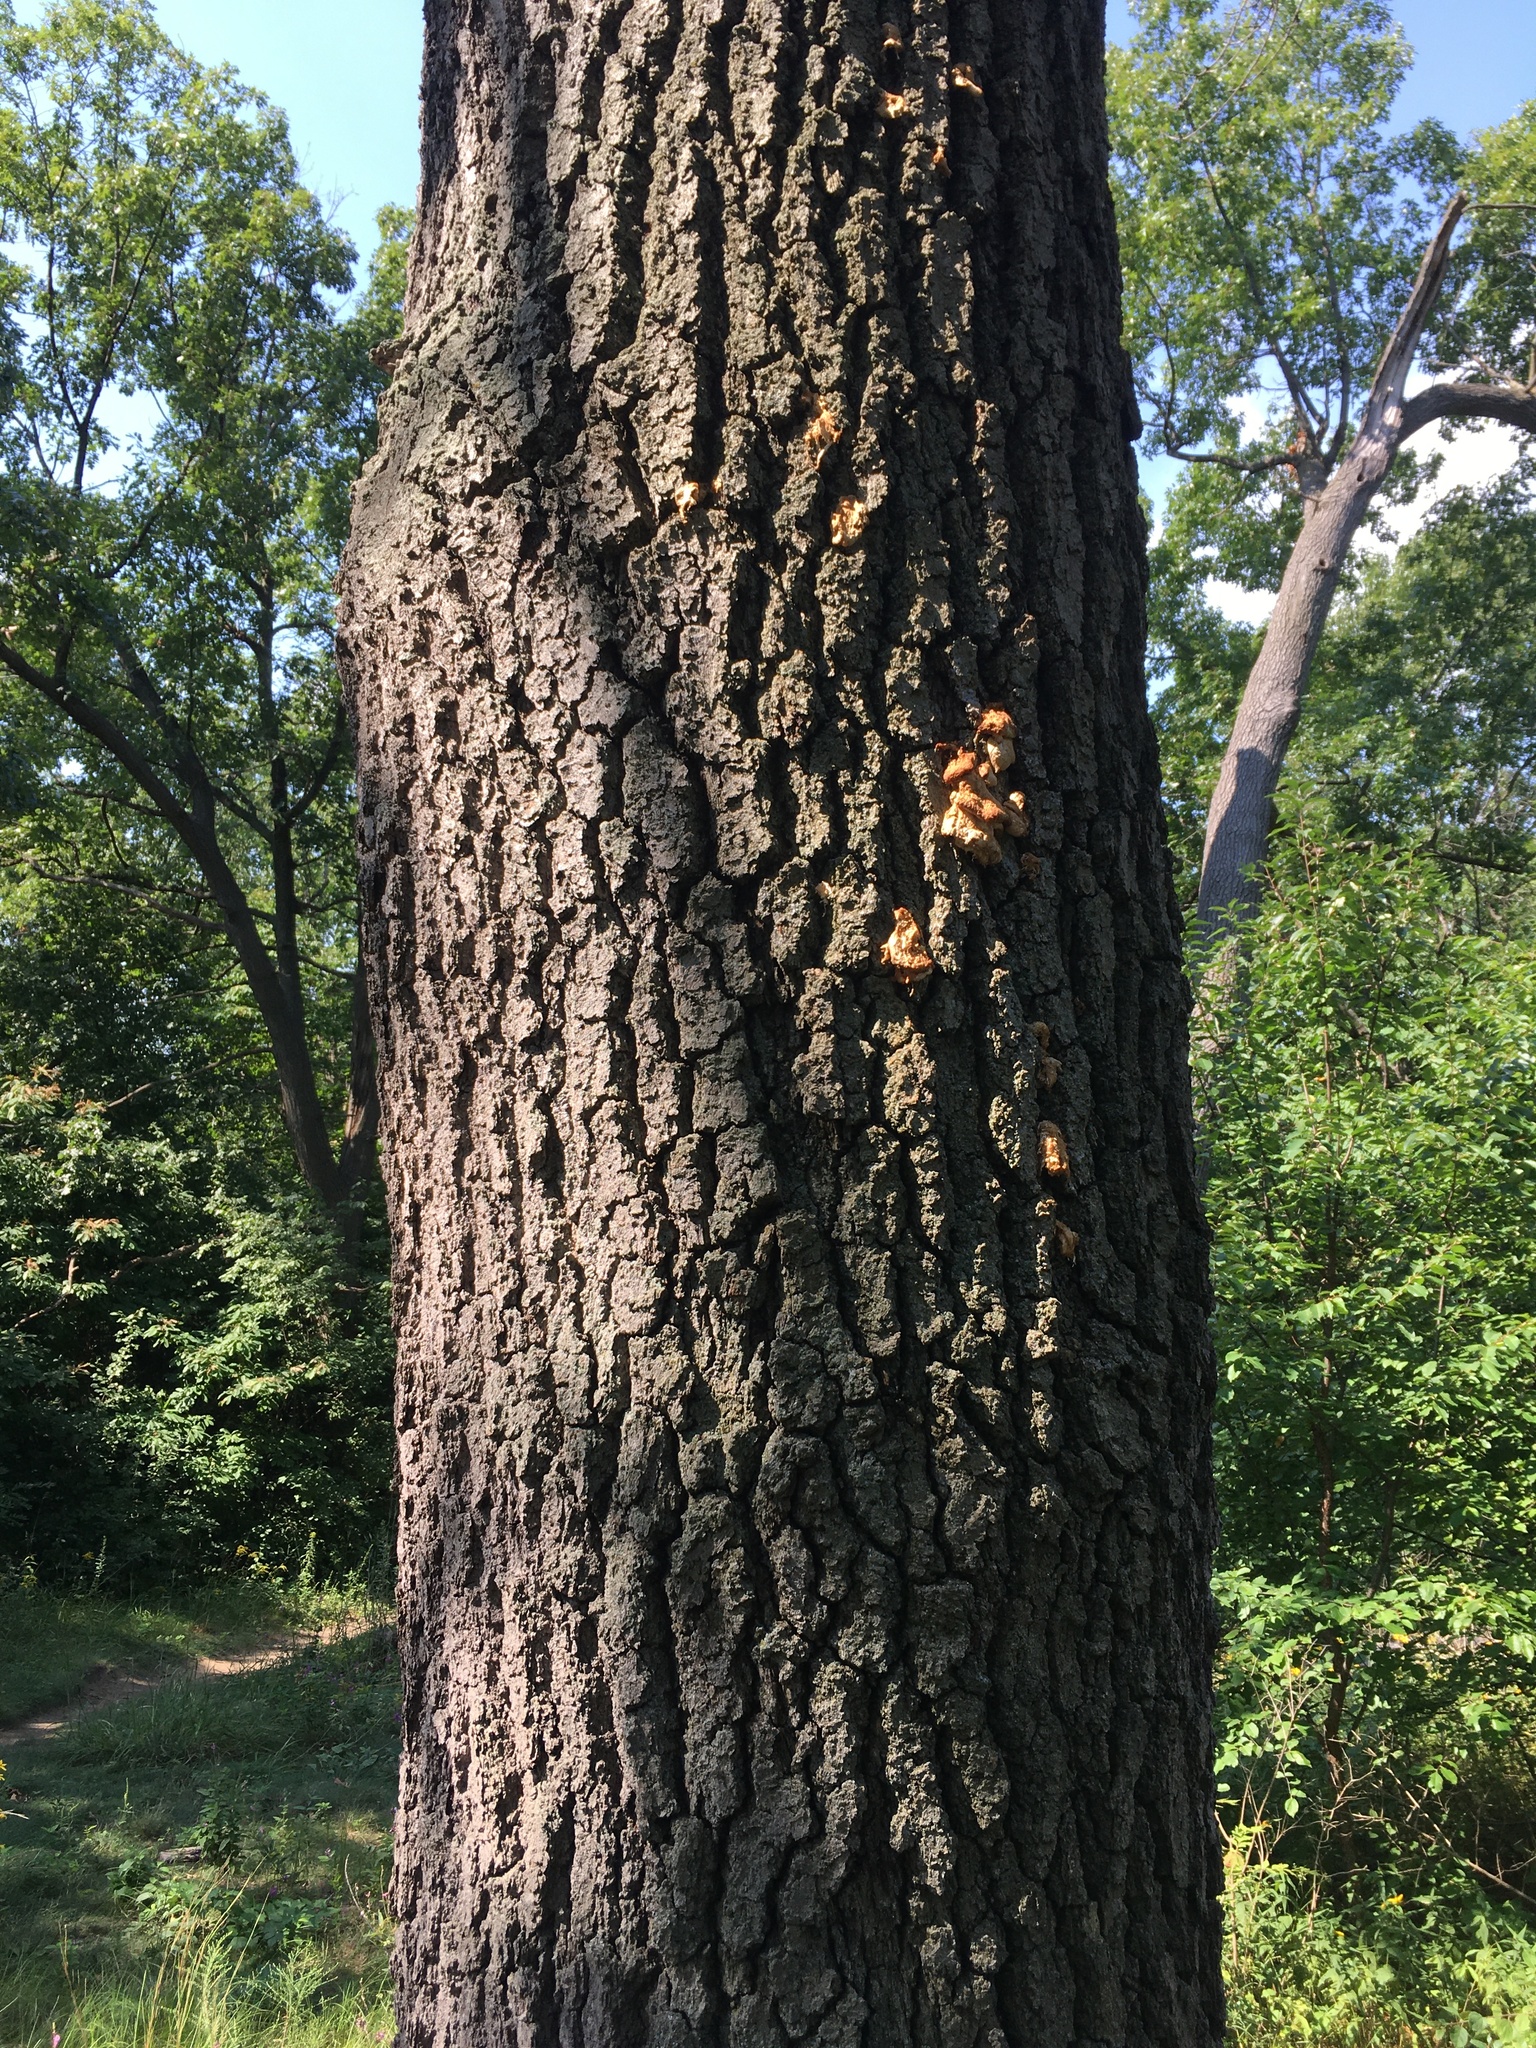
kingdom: Plantae
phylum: Tracheophyta
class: Magnoliopsida
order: Fagales
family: Fagaceae
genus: Quercus
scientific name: Quercus velutina
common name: Black oak
